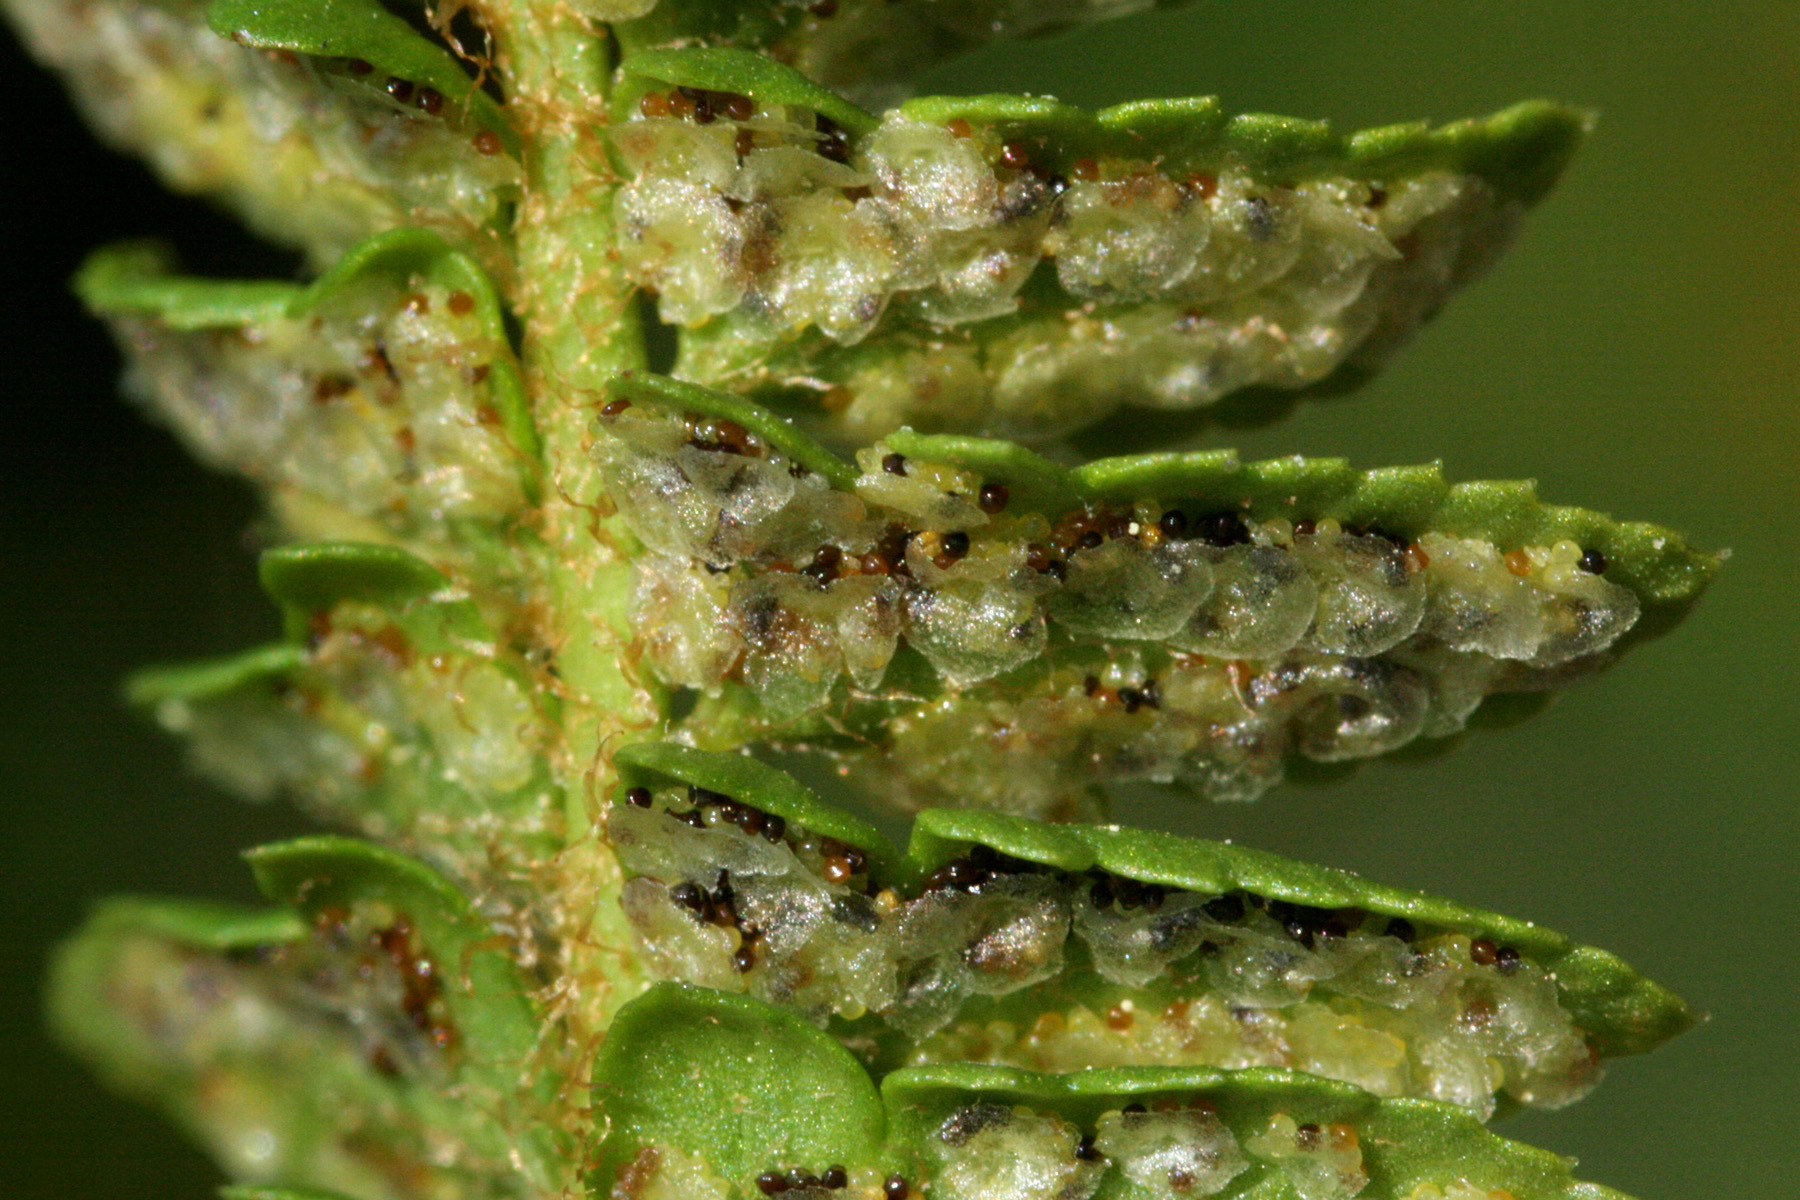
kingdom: Plantae
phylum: Tracheophyta
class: Polypodiopsida
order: Polypodiales
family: Dryopteridaceae
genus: Polystichum
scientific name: Polystichum scopulinum
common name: Eaton's shield fern
